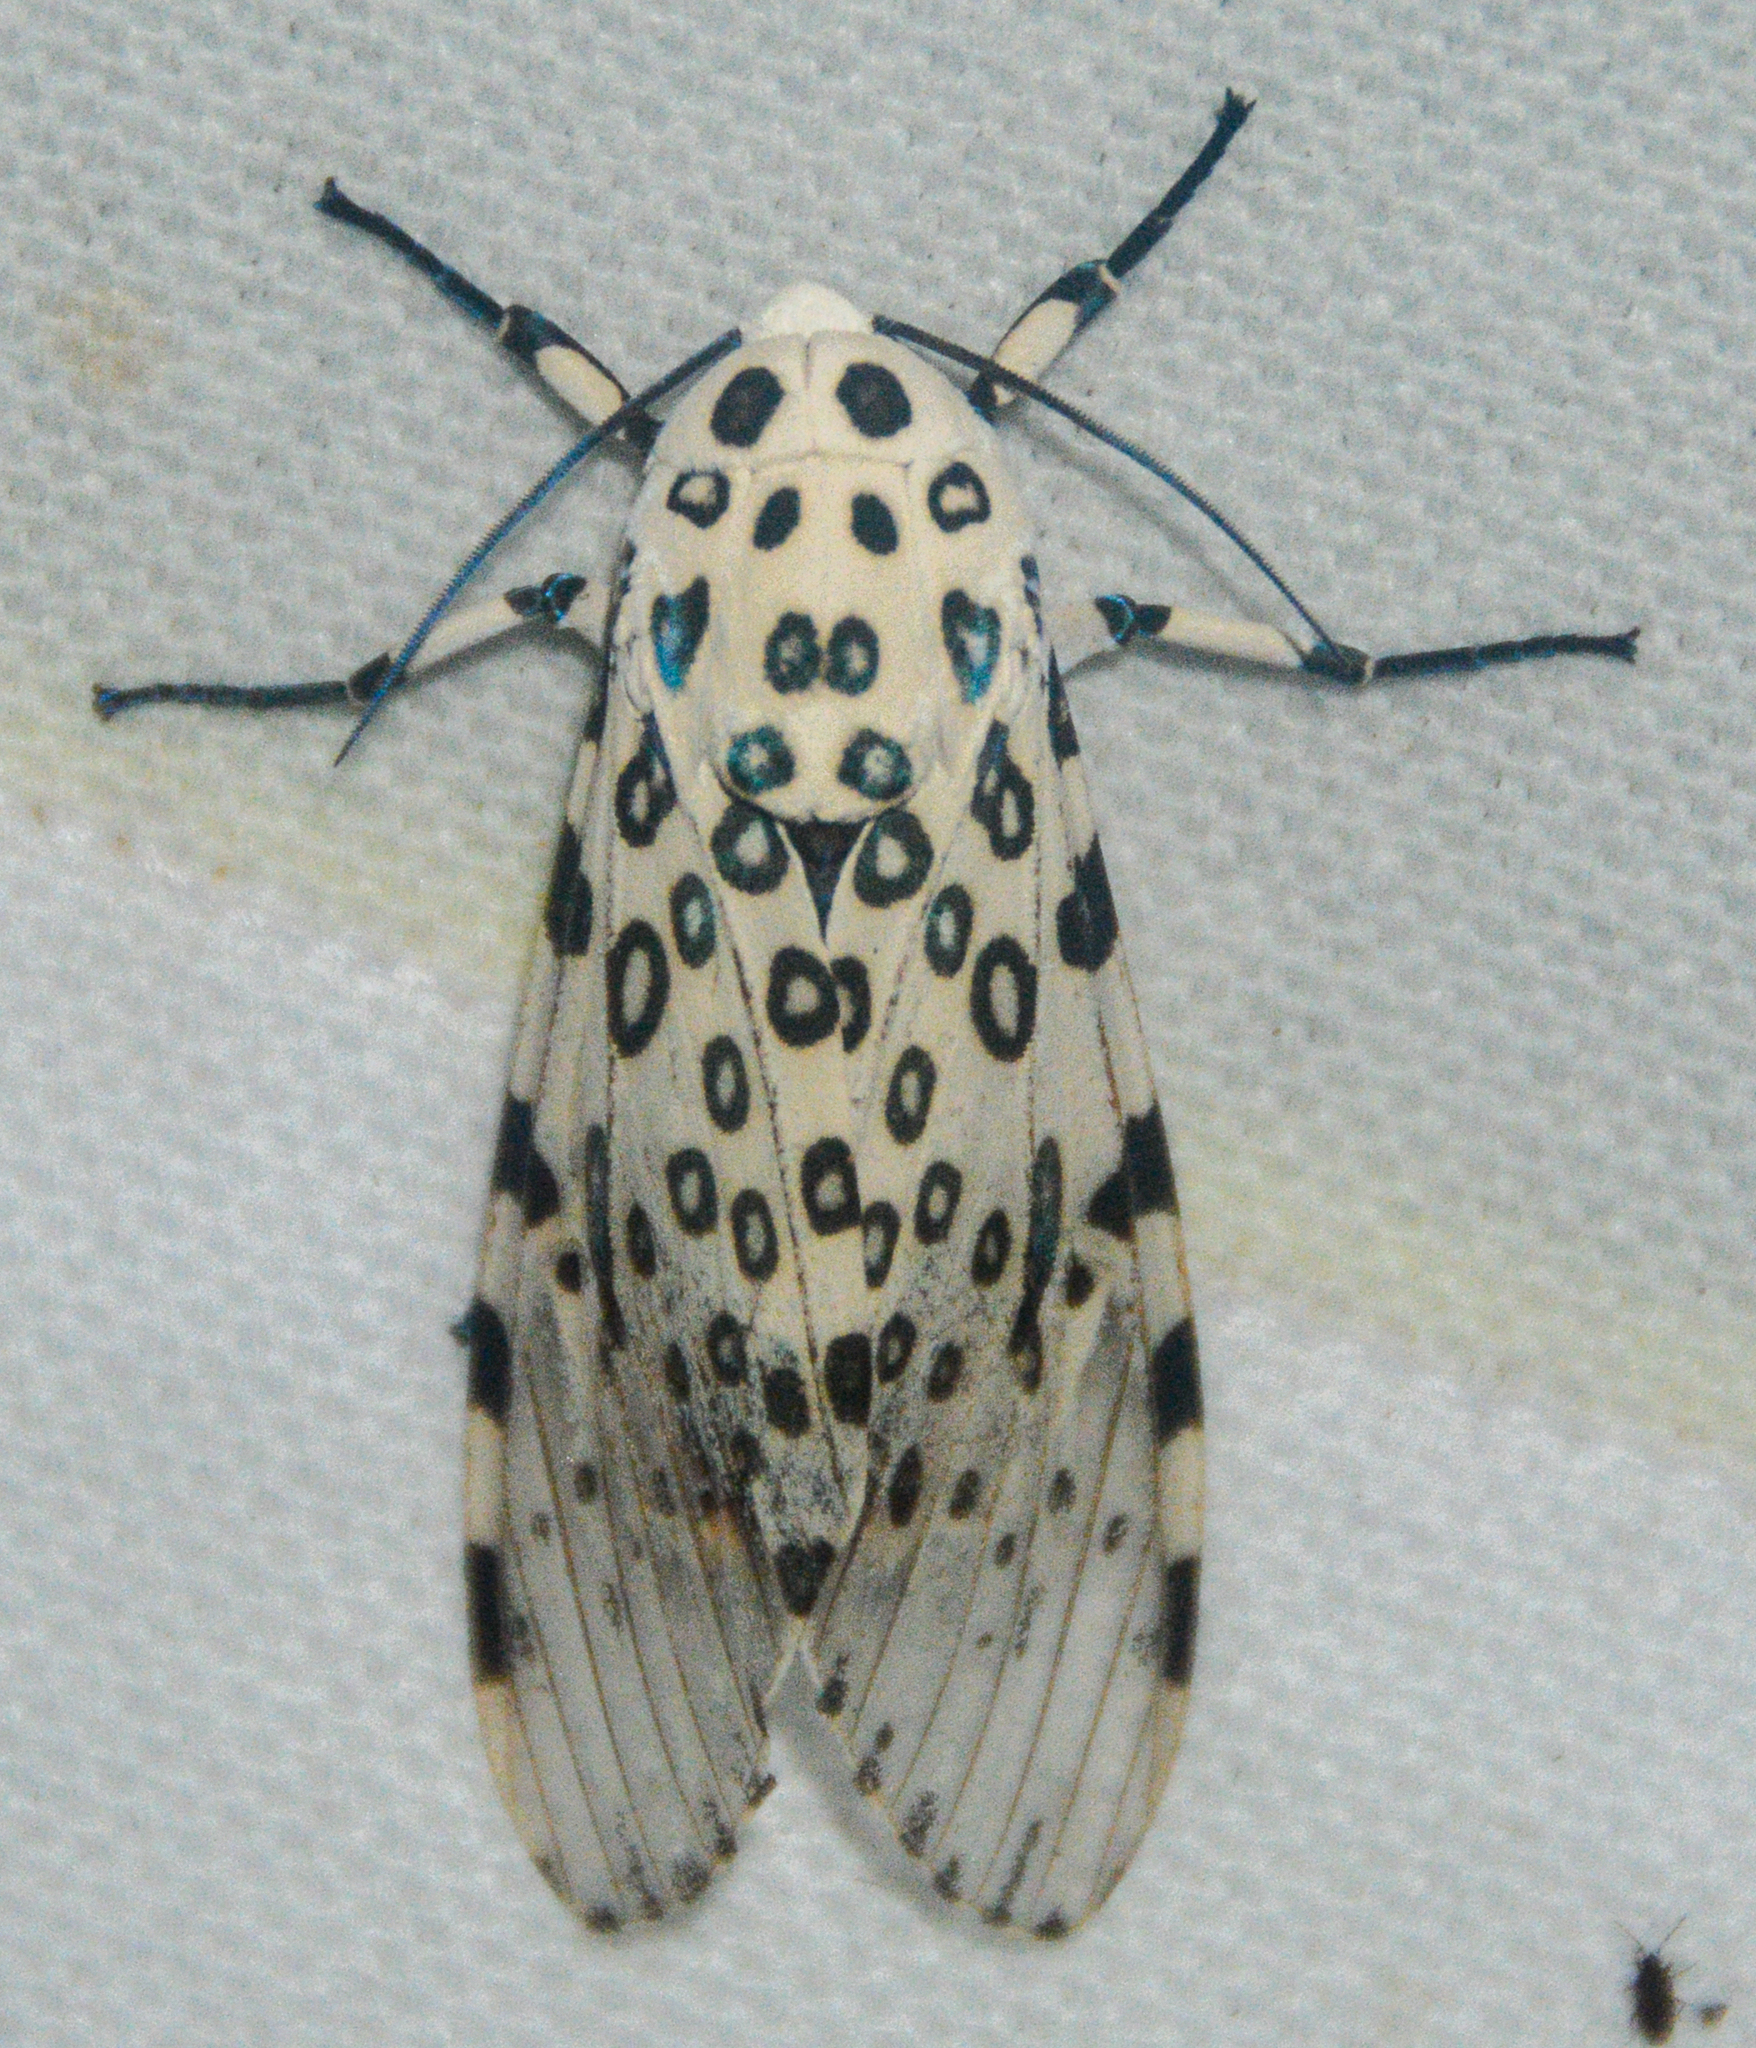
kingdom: Animalia
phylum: Arthropoda
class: Insecta
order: Lepidoptera
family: Erebidae
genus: Hypercompe
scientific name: Hypercompe scribonia
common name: Giant leopard moth
